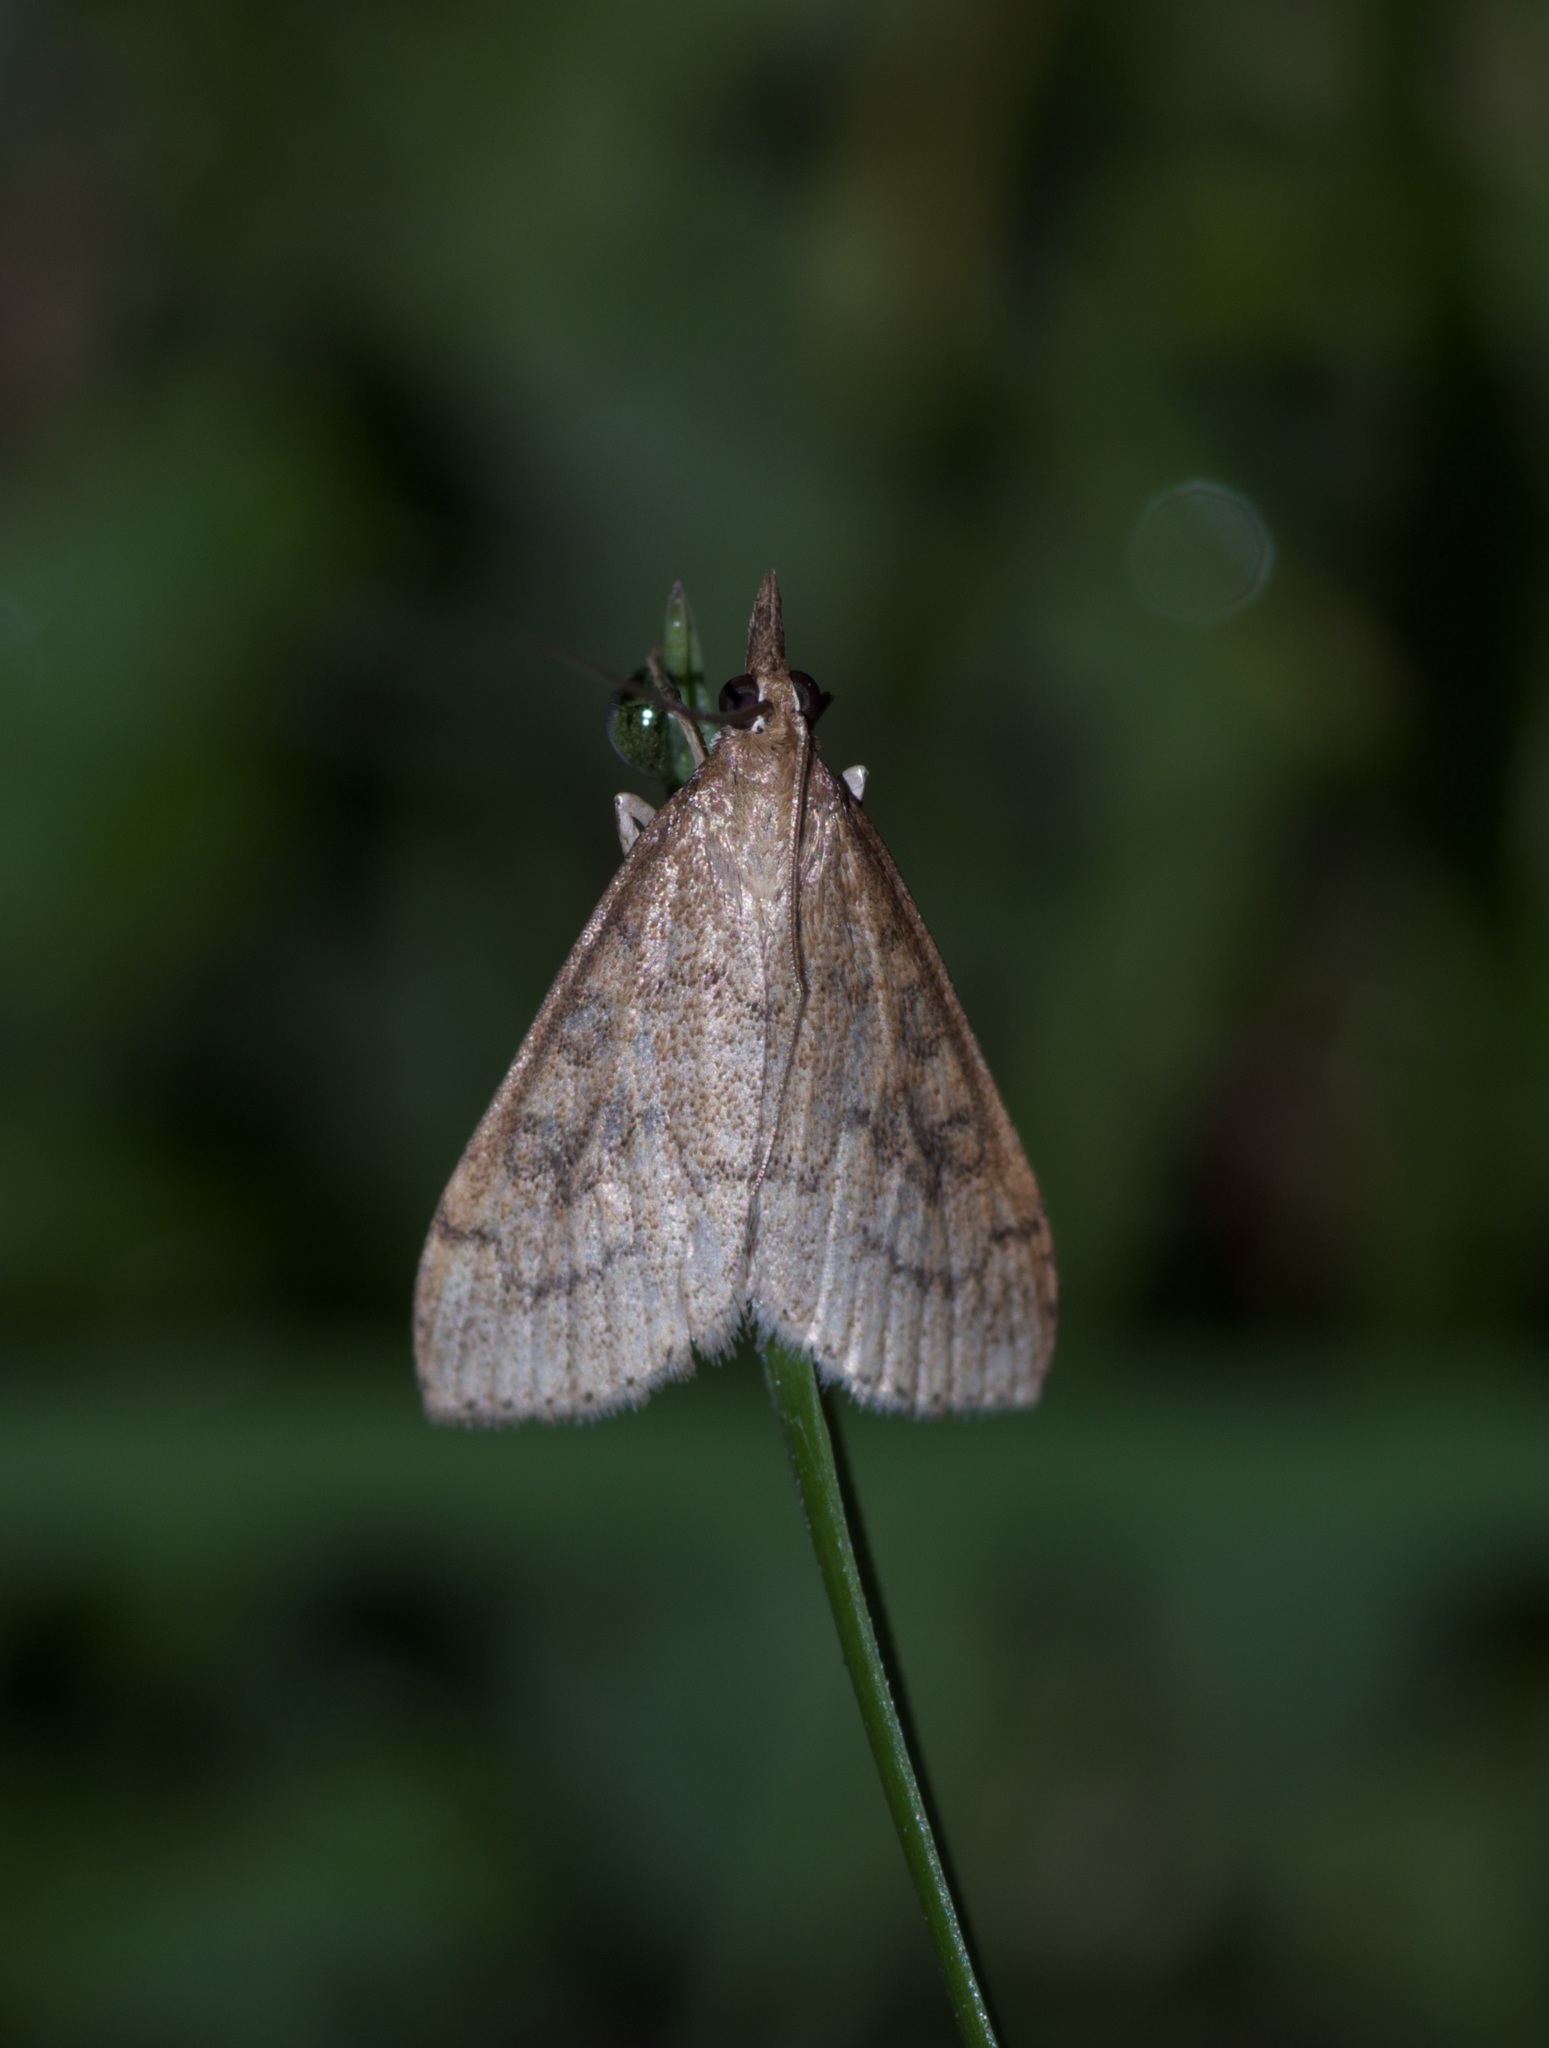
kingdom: Animalia
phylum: Arthropoda
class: Insecta
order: Lepidoptera
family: Crambidae
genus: Udea
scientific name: Udea rubigalis
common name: Celery leaftier moth
